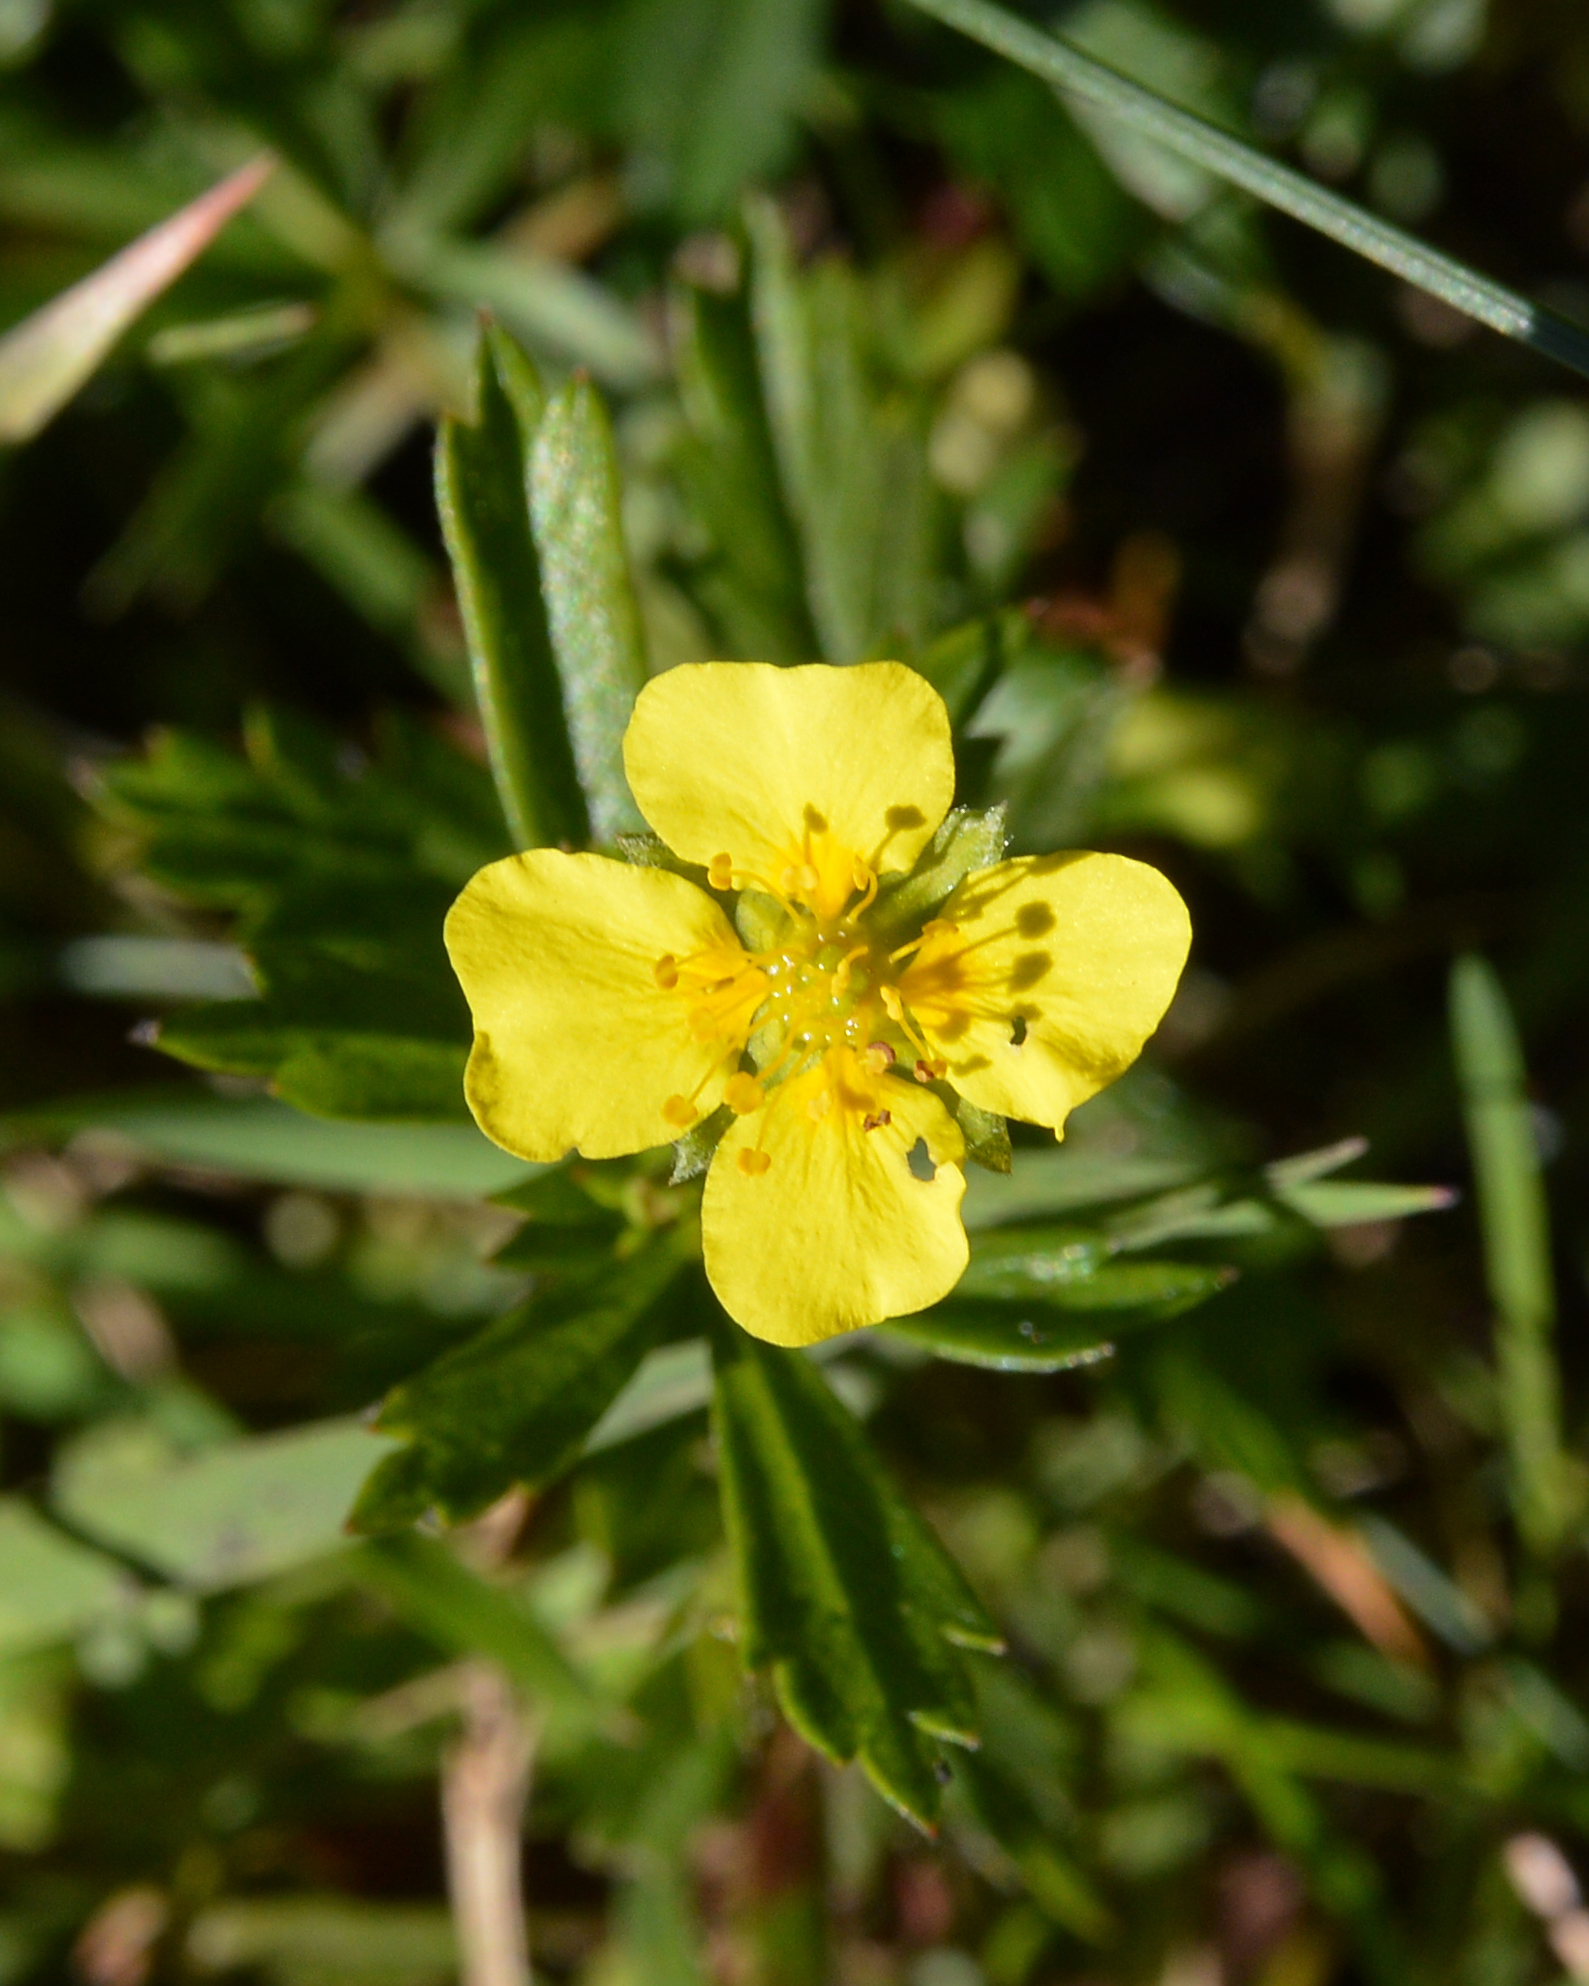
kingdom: Plantae
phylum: Tracheophyta
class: Magnoliopsida
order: Rosales
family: Rosaceae
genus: Potentilla
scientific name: Potentilla erecta
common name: Tormentil
